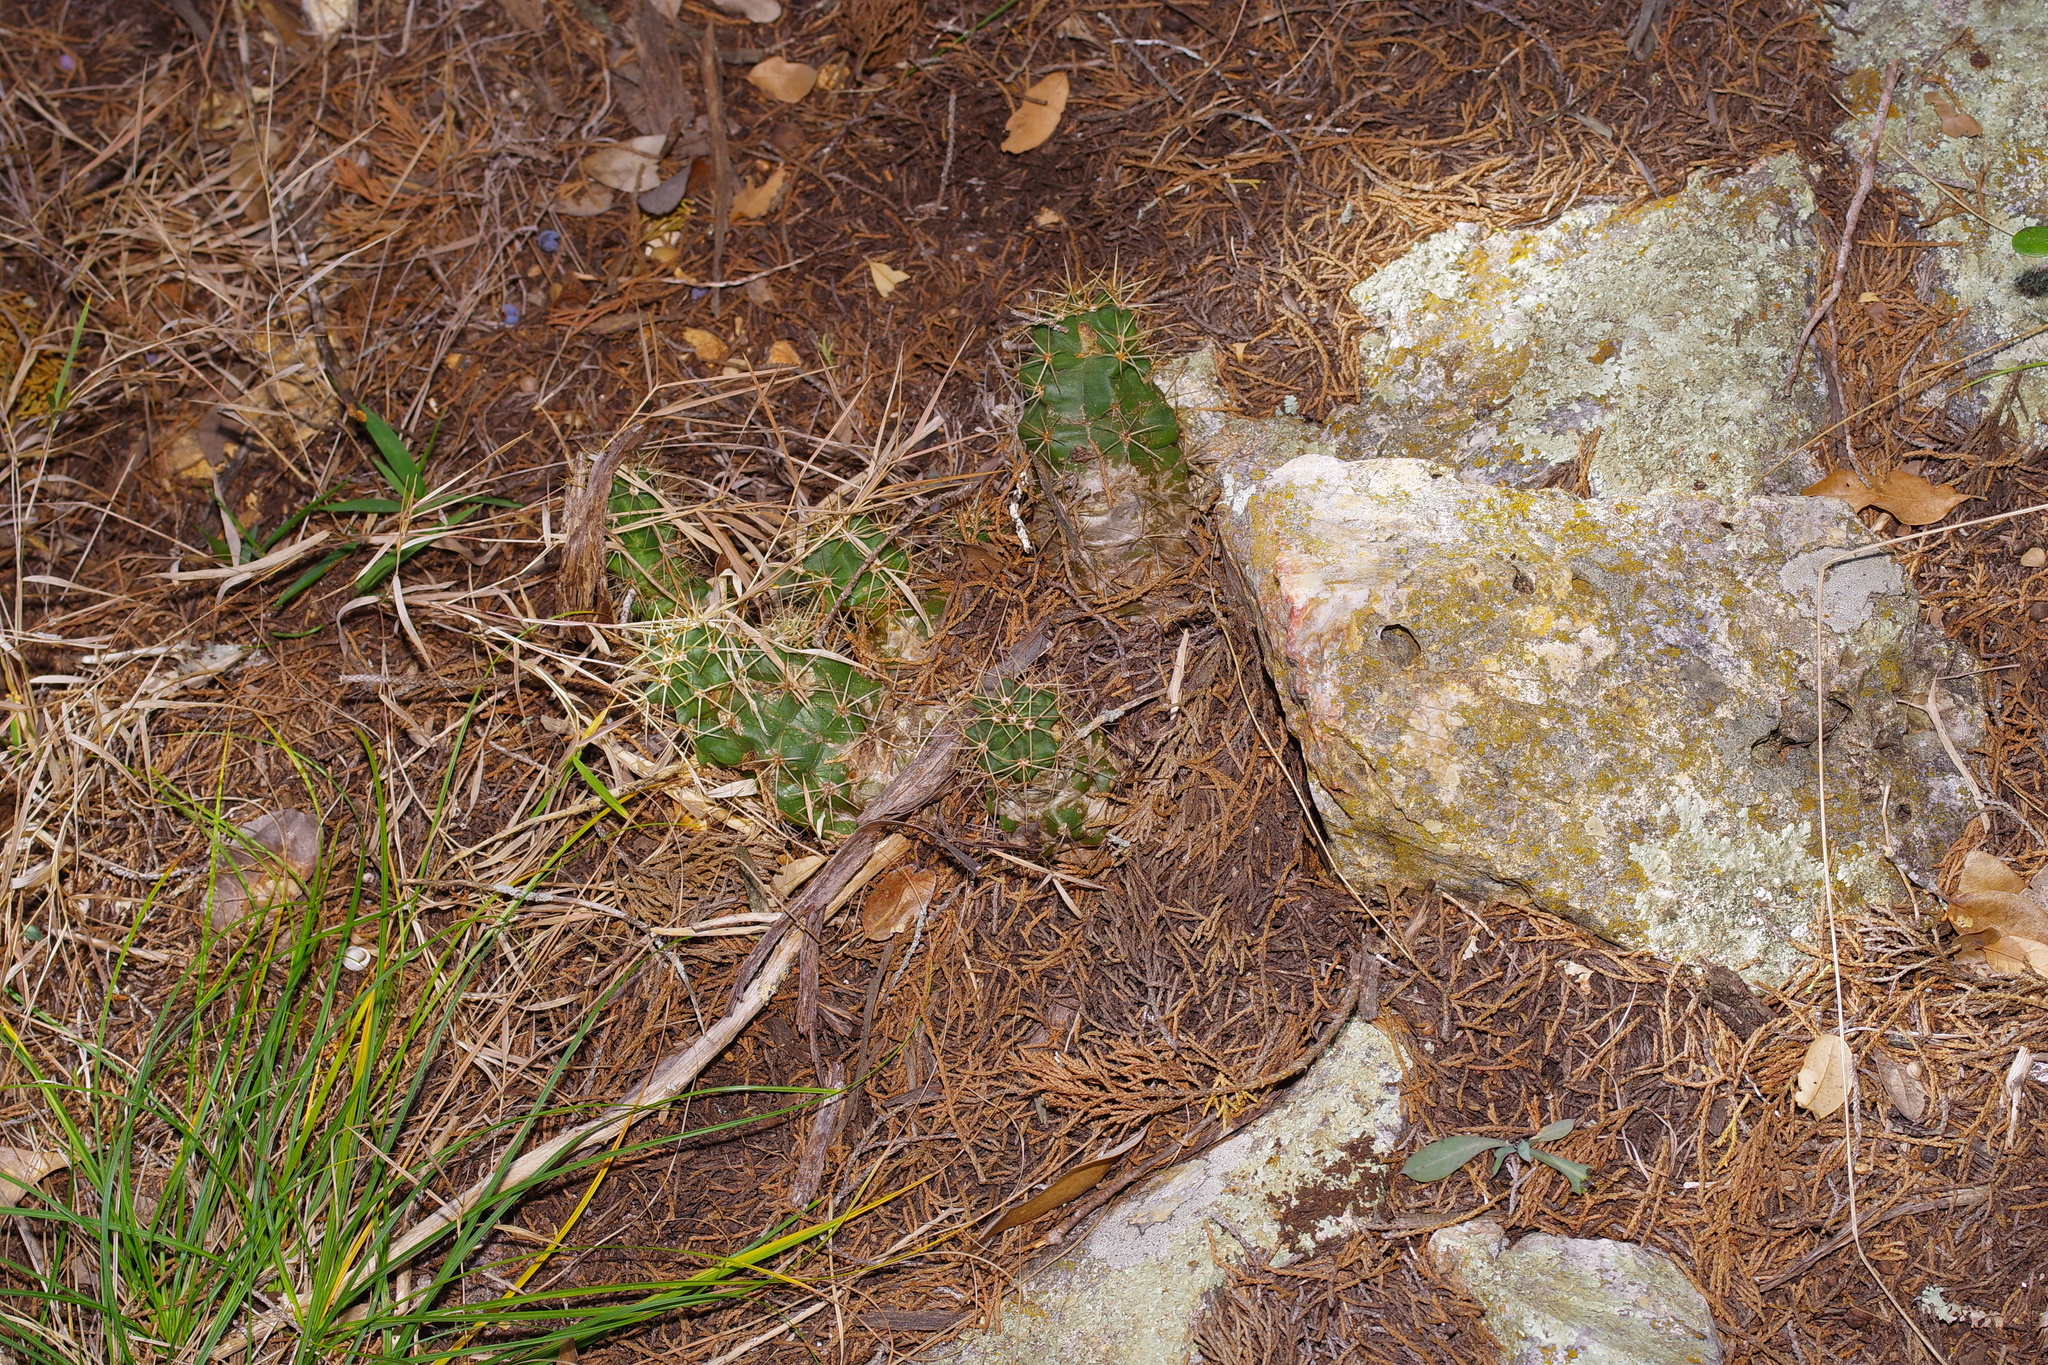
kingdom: Plantae
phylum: Tracheophyta
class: Magnoliopsida
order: Caryophyllales
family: Cactaceae
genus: Echinocereus
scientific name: Echinocereus coccineus
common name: Scarlet hedgehog cactus
